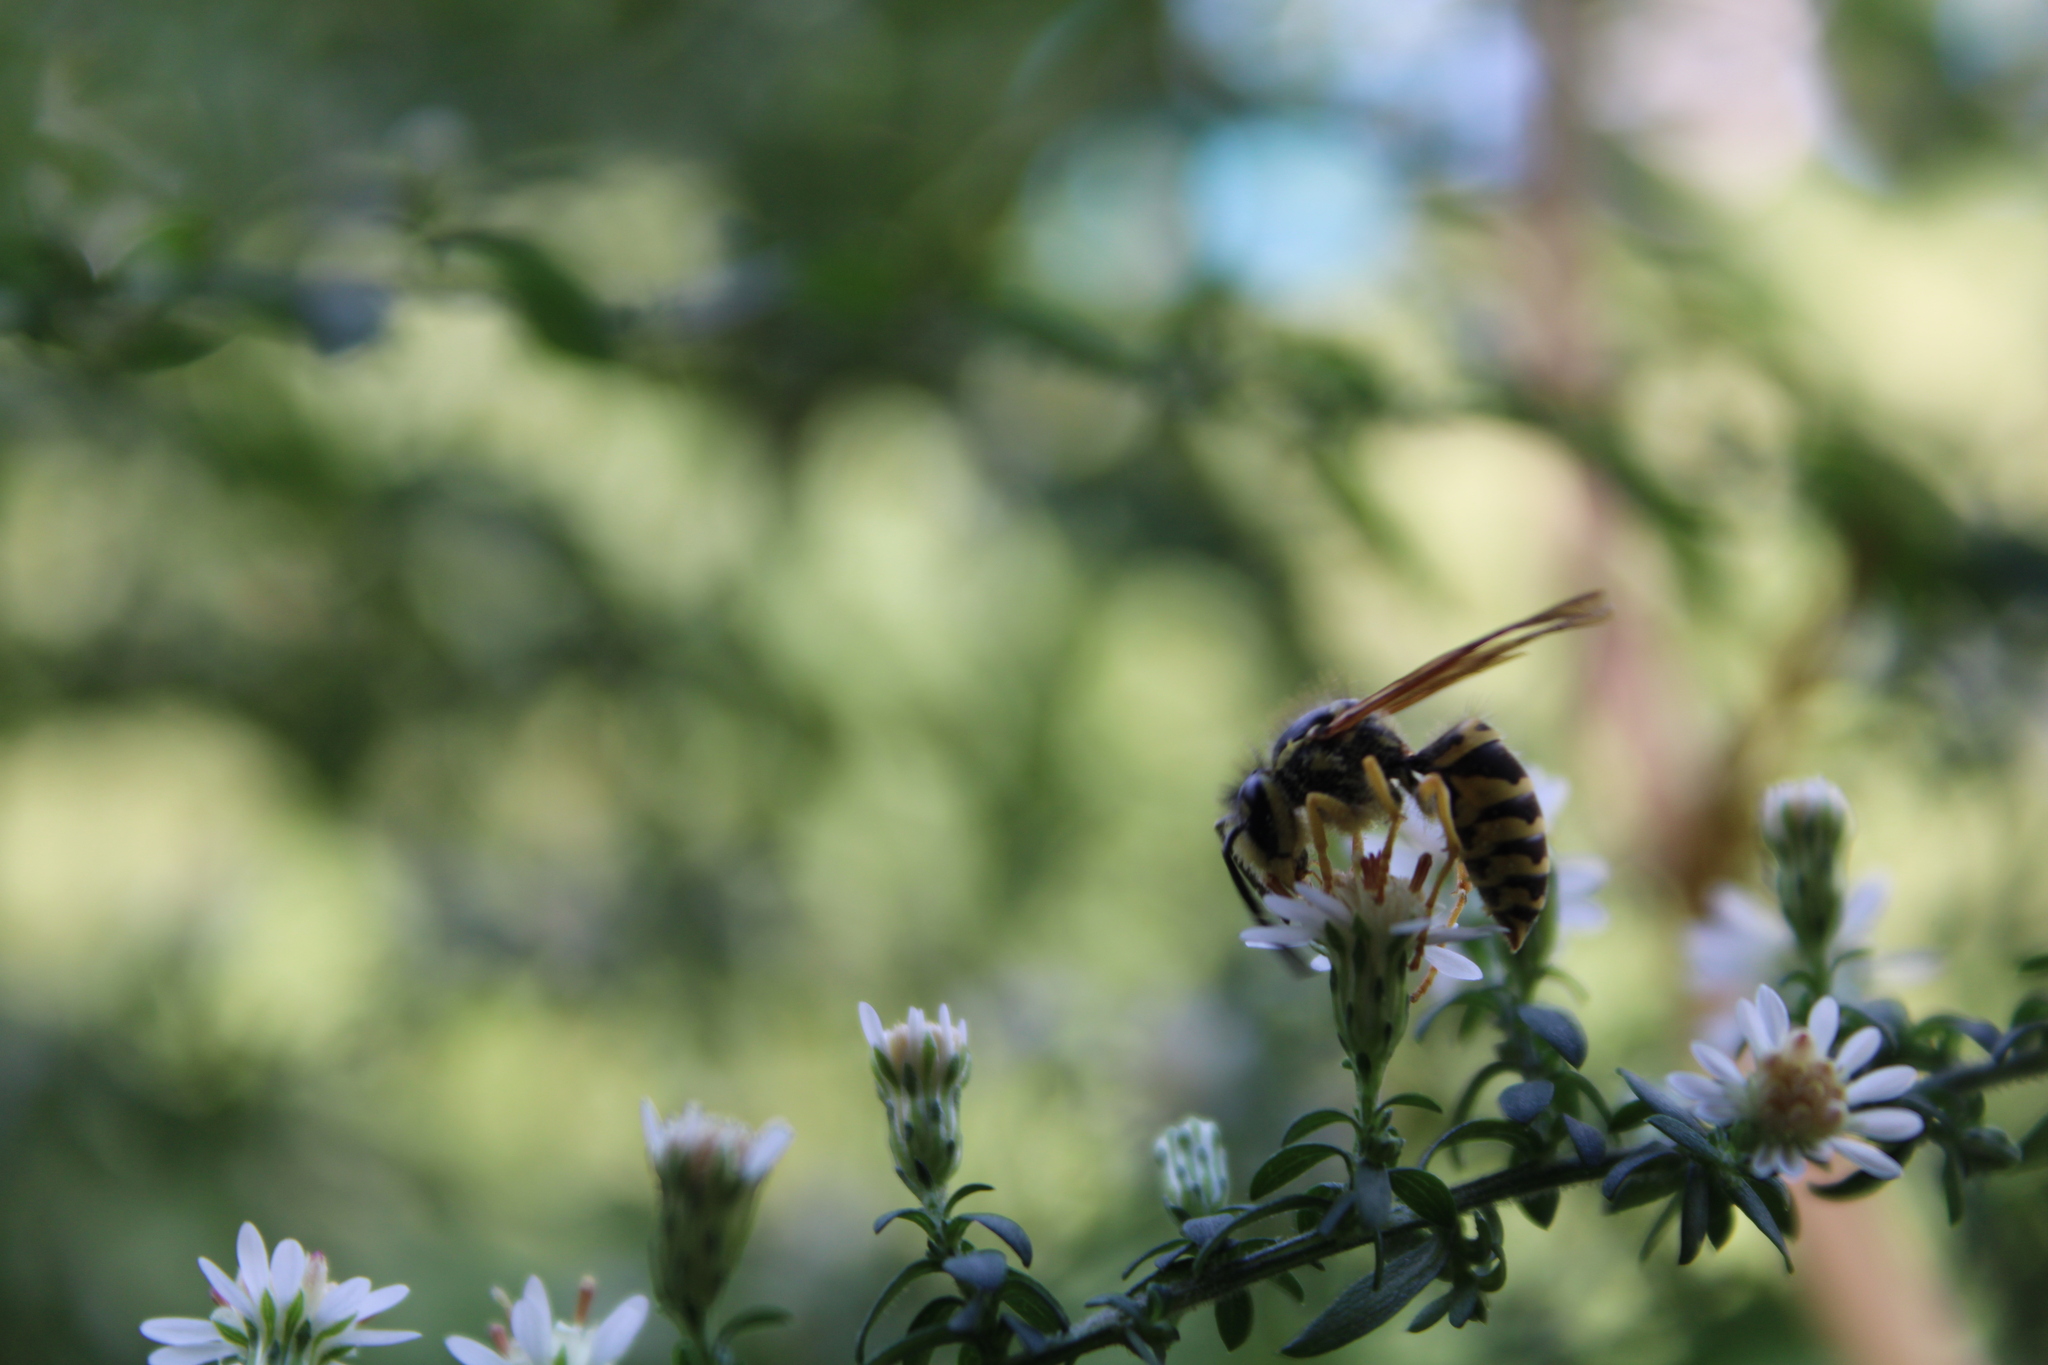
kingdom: Animalia
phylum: Arthropoda
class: Insecta
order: Hymenoptera
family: Vespidae
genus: Vespula
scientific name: Vespula maculifrons
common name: Eastern yellowjacket
